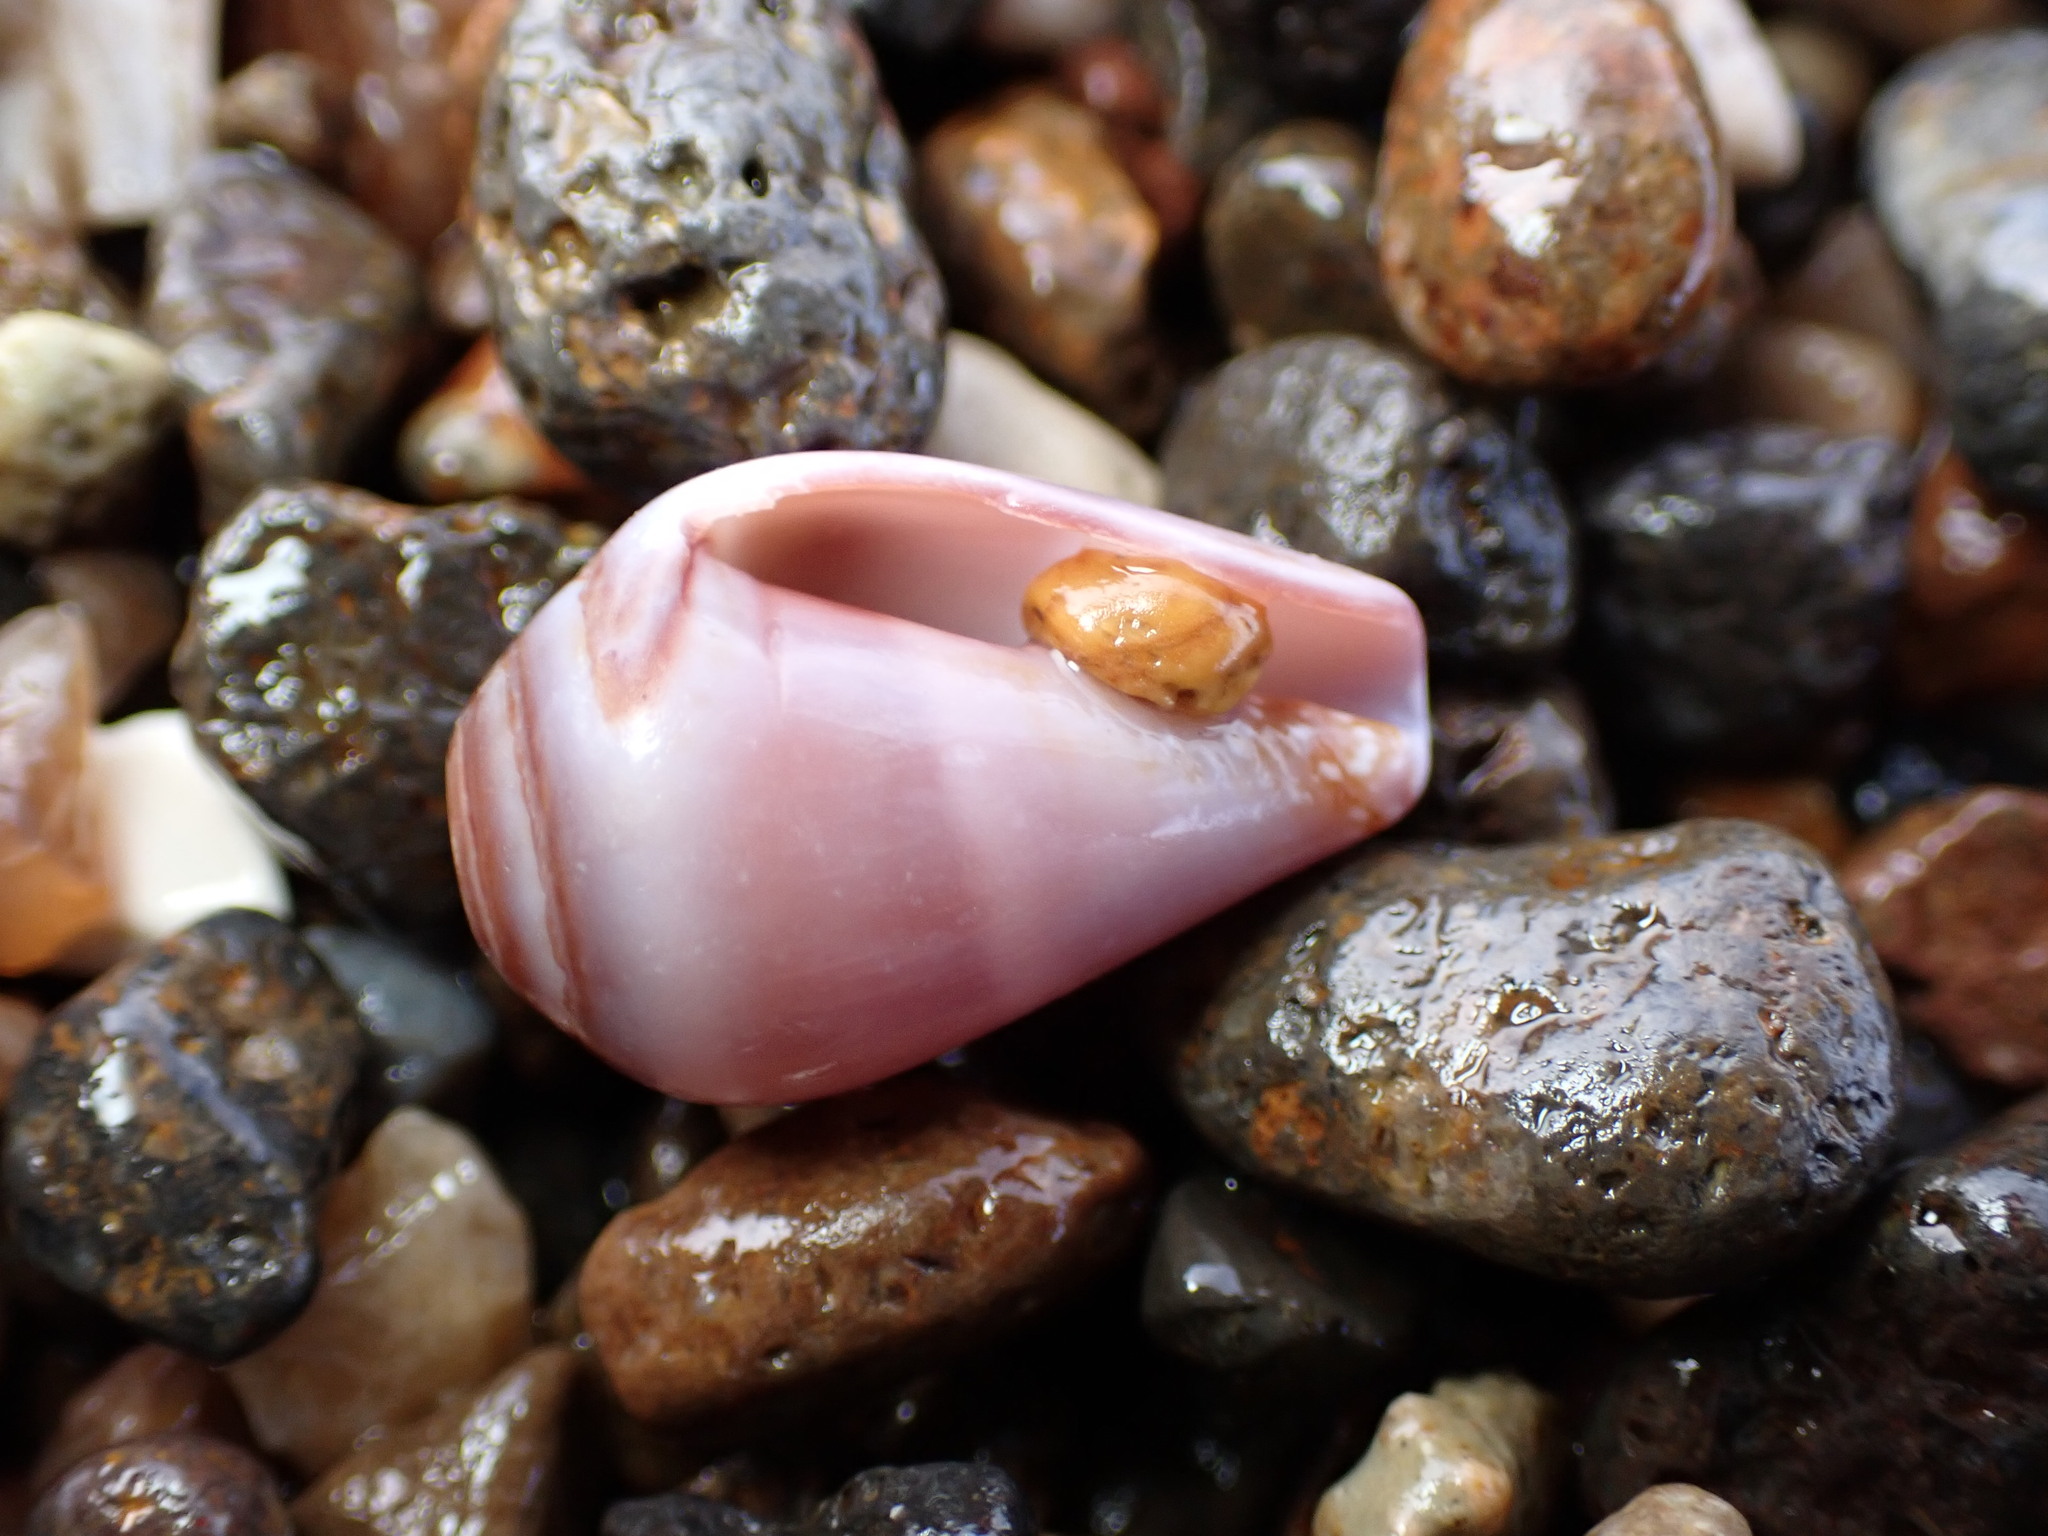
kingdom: Animalia
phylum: Mollusca
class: Gastropoda
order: Neogastropoda
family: Conidae
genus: Californiconus
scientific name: Californiconus californicus
